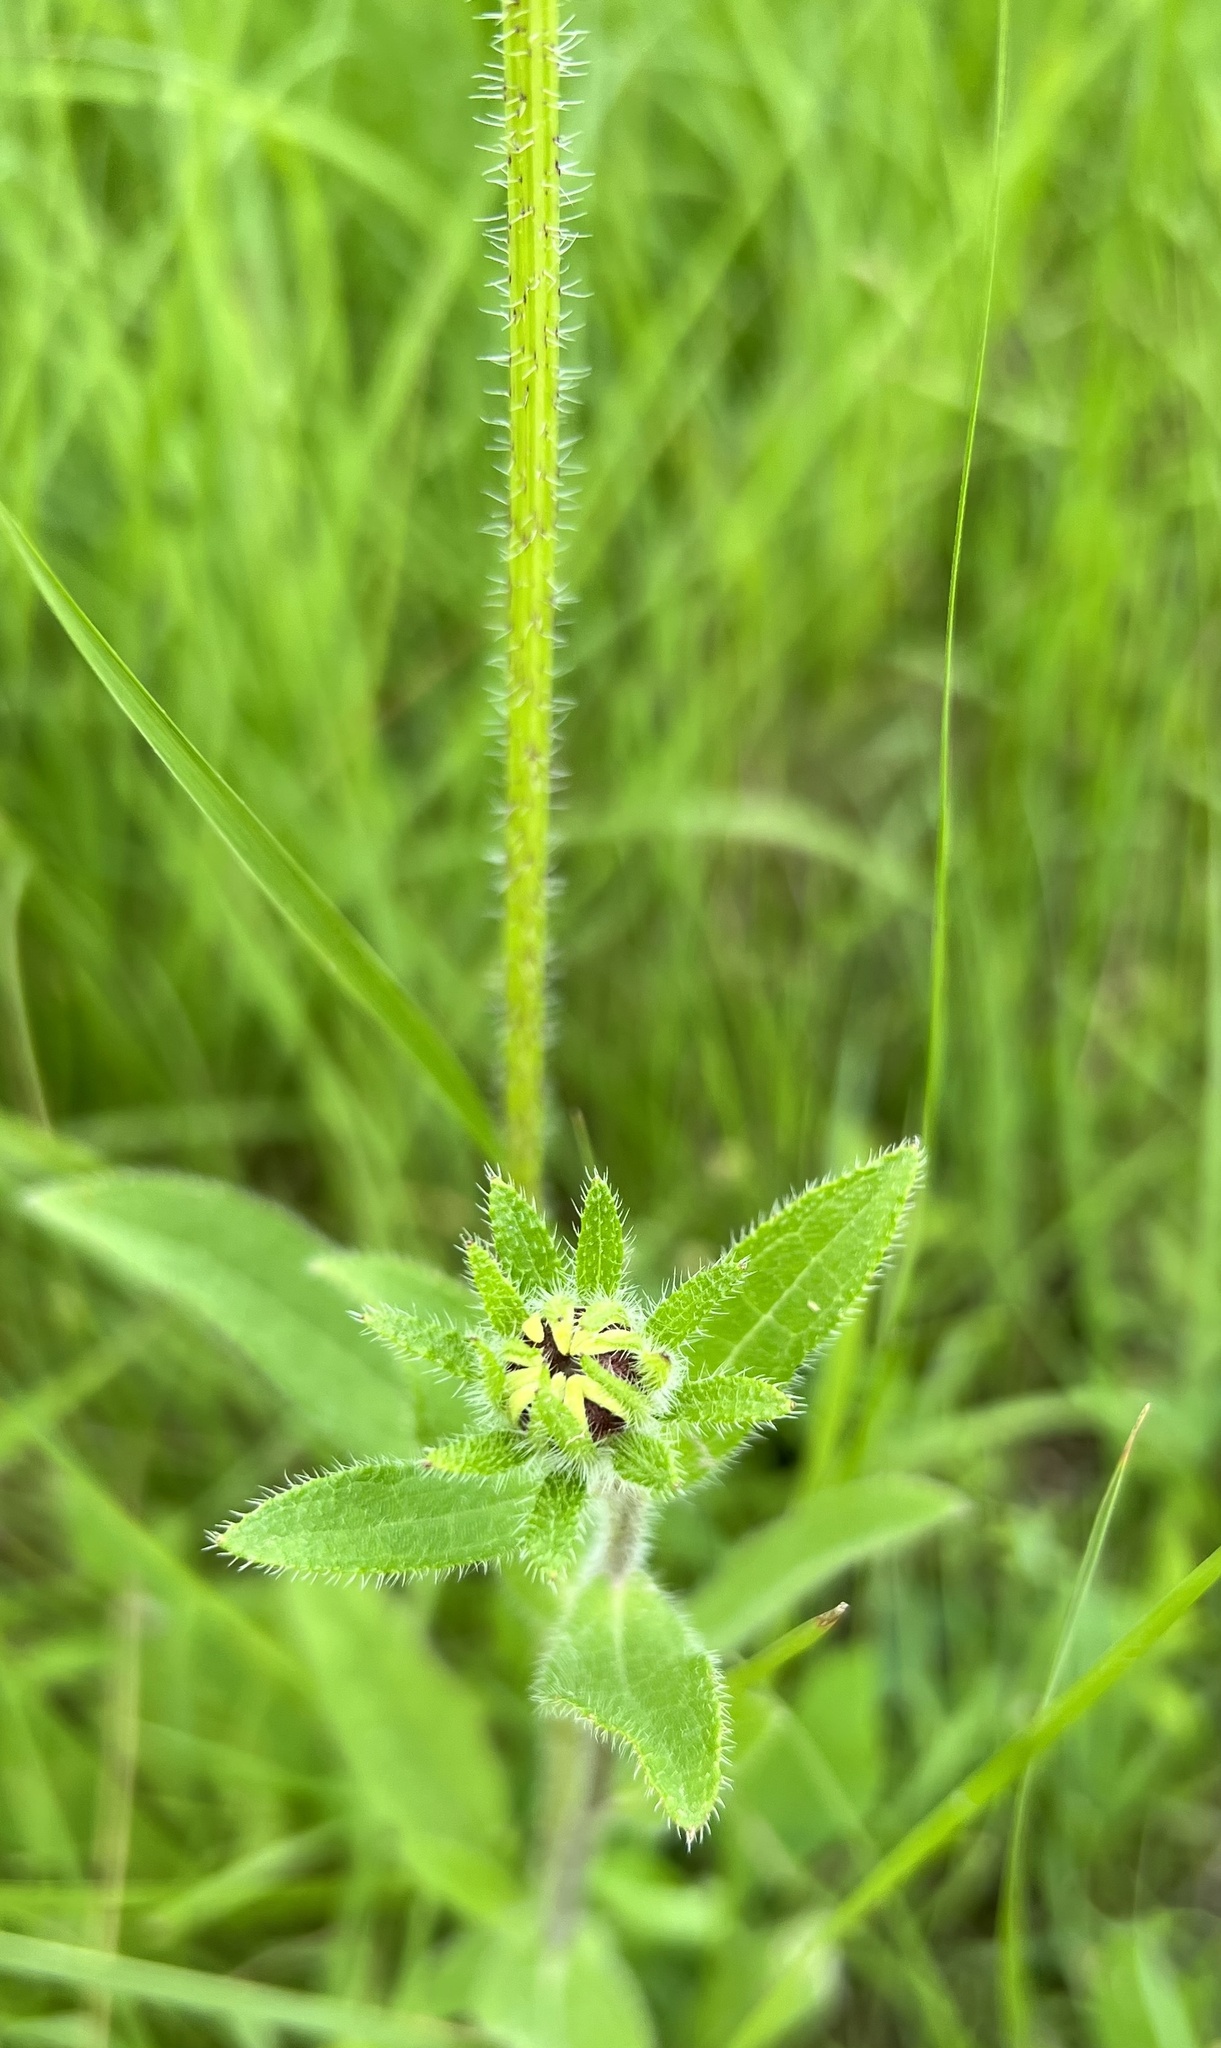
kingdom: Plantae
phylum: Tracheophyta
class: Magnoliopsida
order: Asterales
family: Asteraceae
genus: Rudbeckia
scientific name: Rudbeckia hirta
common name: Black-eyed-susan
